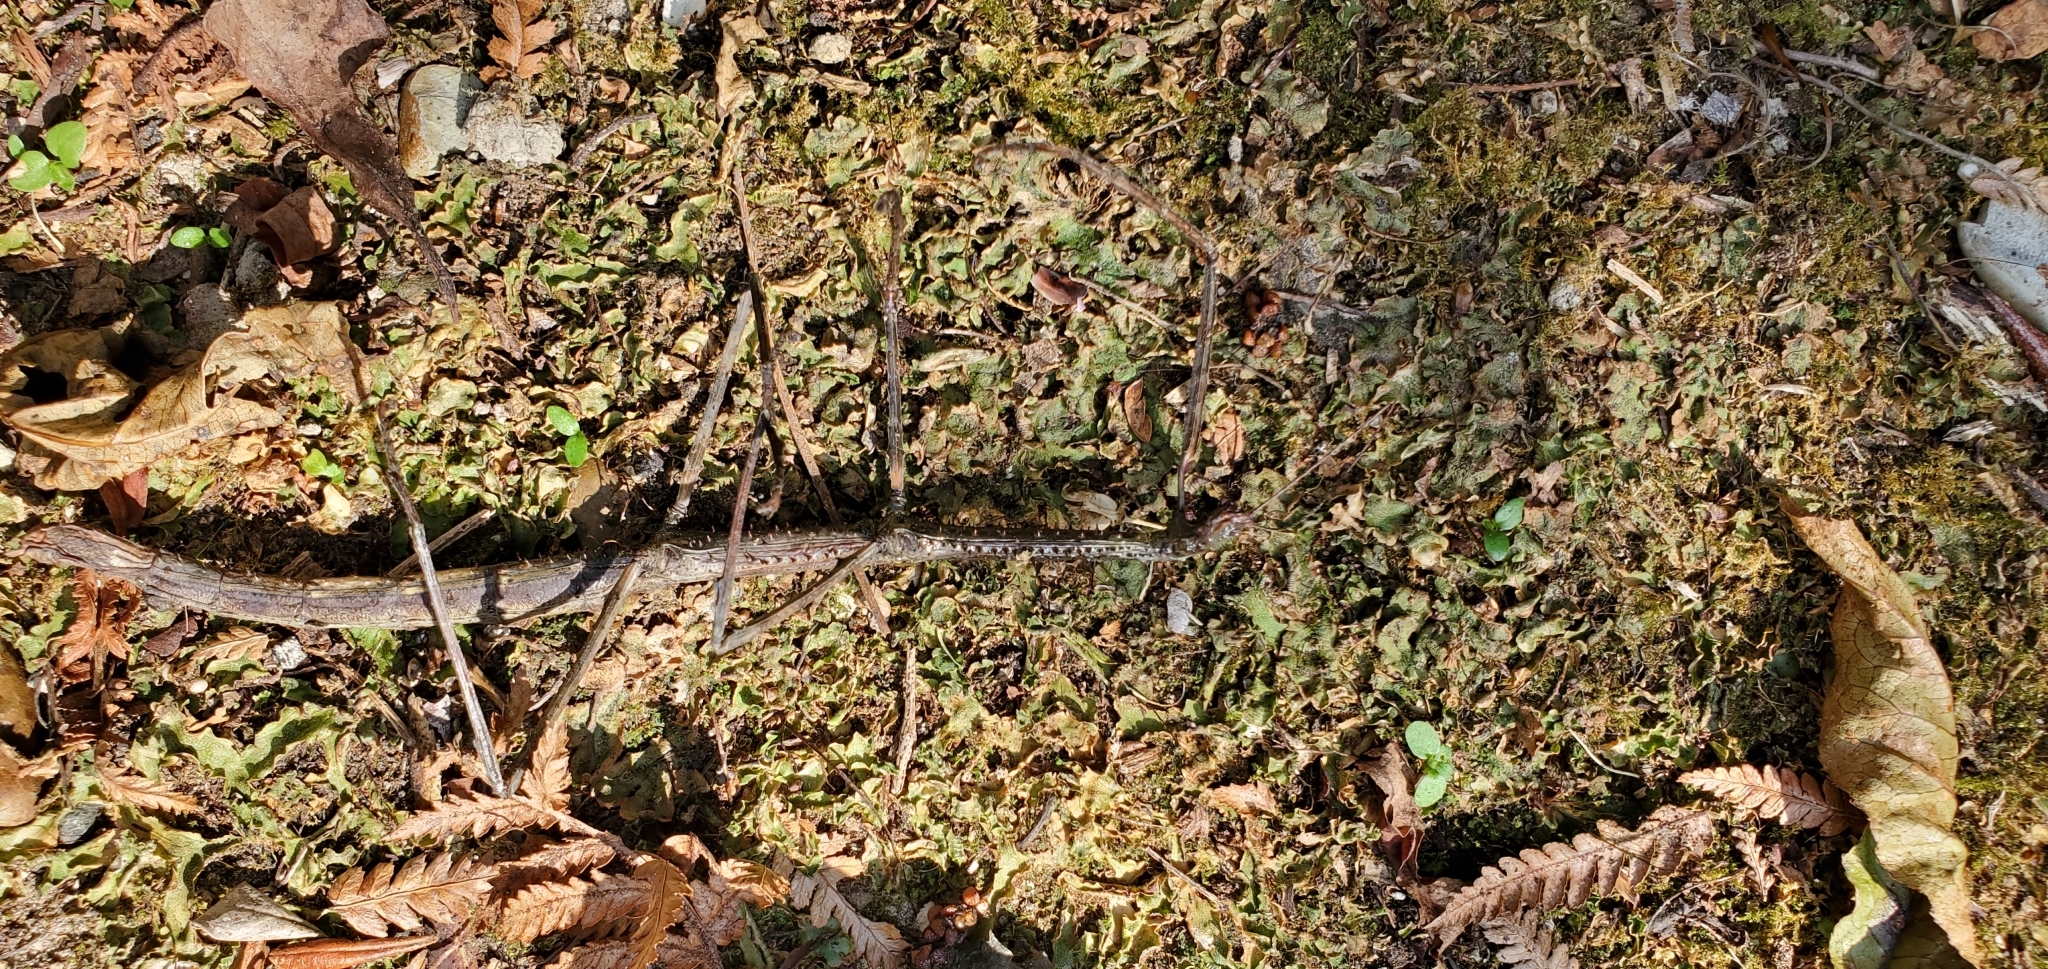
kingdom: Animalia
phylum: Arthropoda
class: Insecta
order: Phasmida
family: Phasmatidae
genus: Argosarchus
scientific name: Argosarchus horridus
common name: Bristly stick insect
